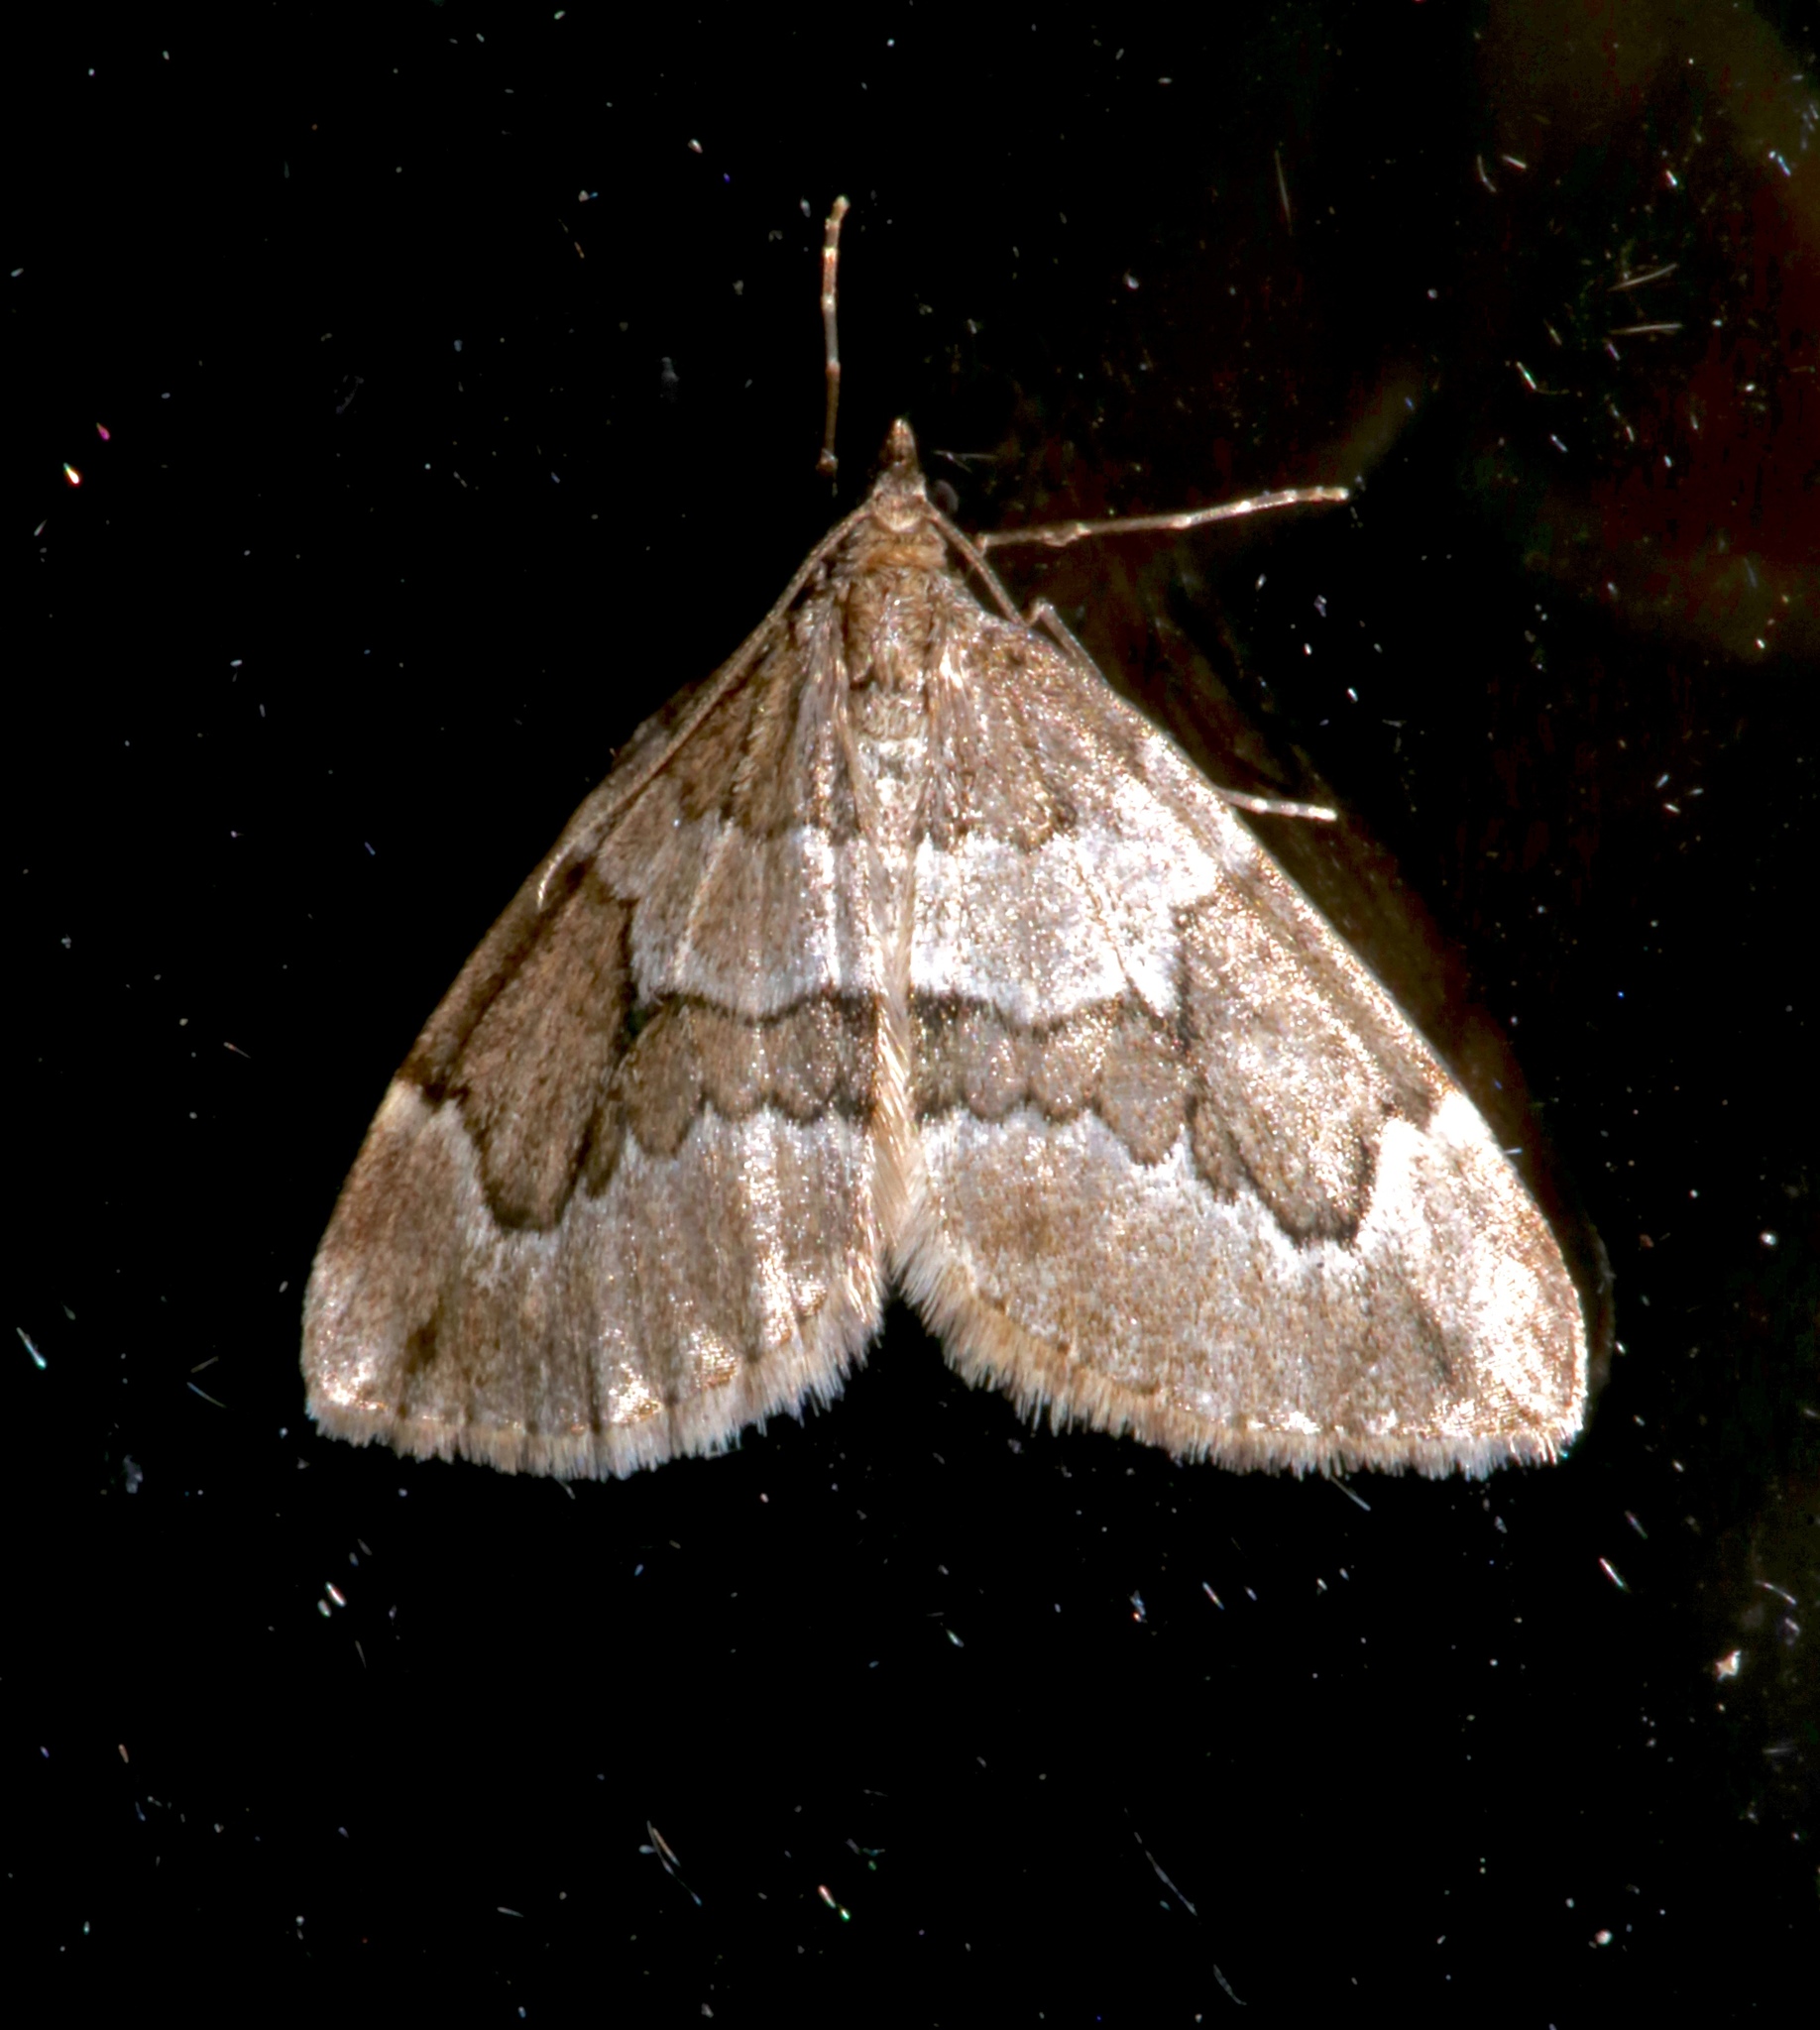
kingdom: Animalia
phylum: Arthropoda
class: Insecta
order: Lepidoptera
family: Geometridae
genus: Thera
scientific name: Thera juniperata
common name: Juniper carpet
